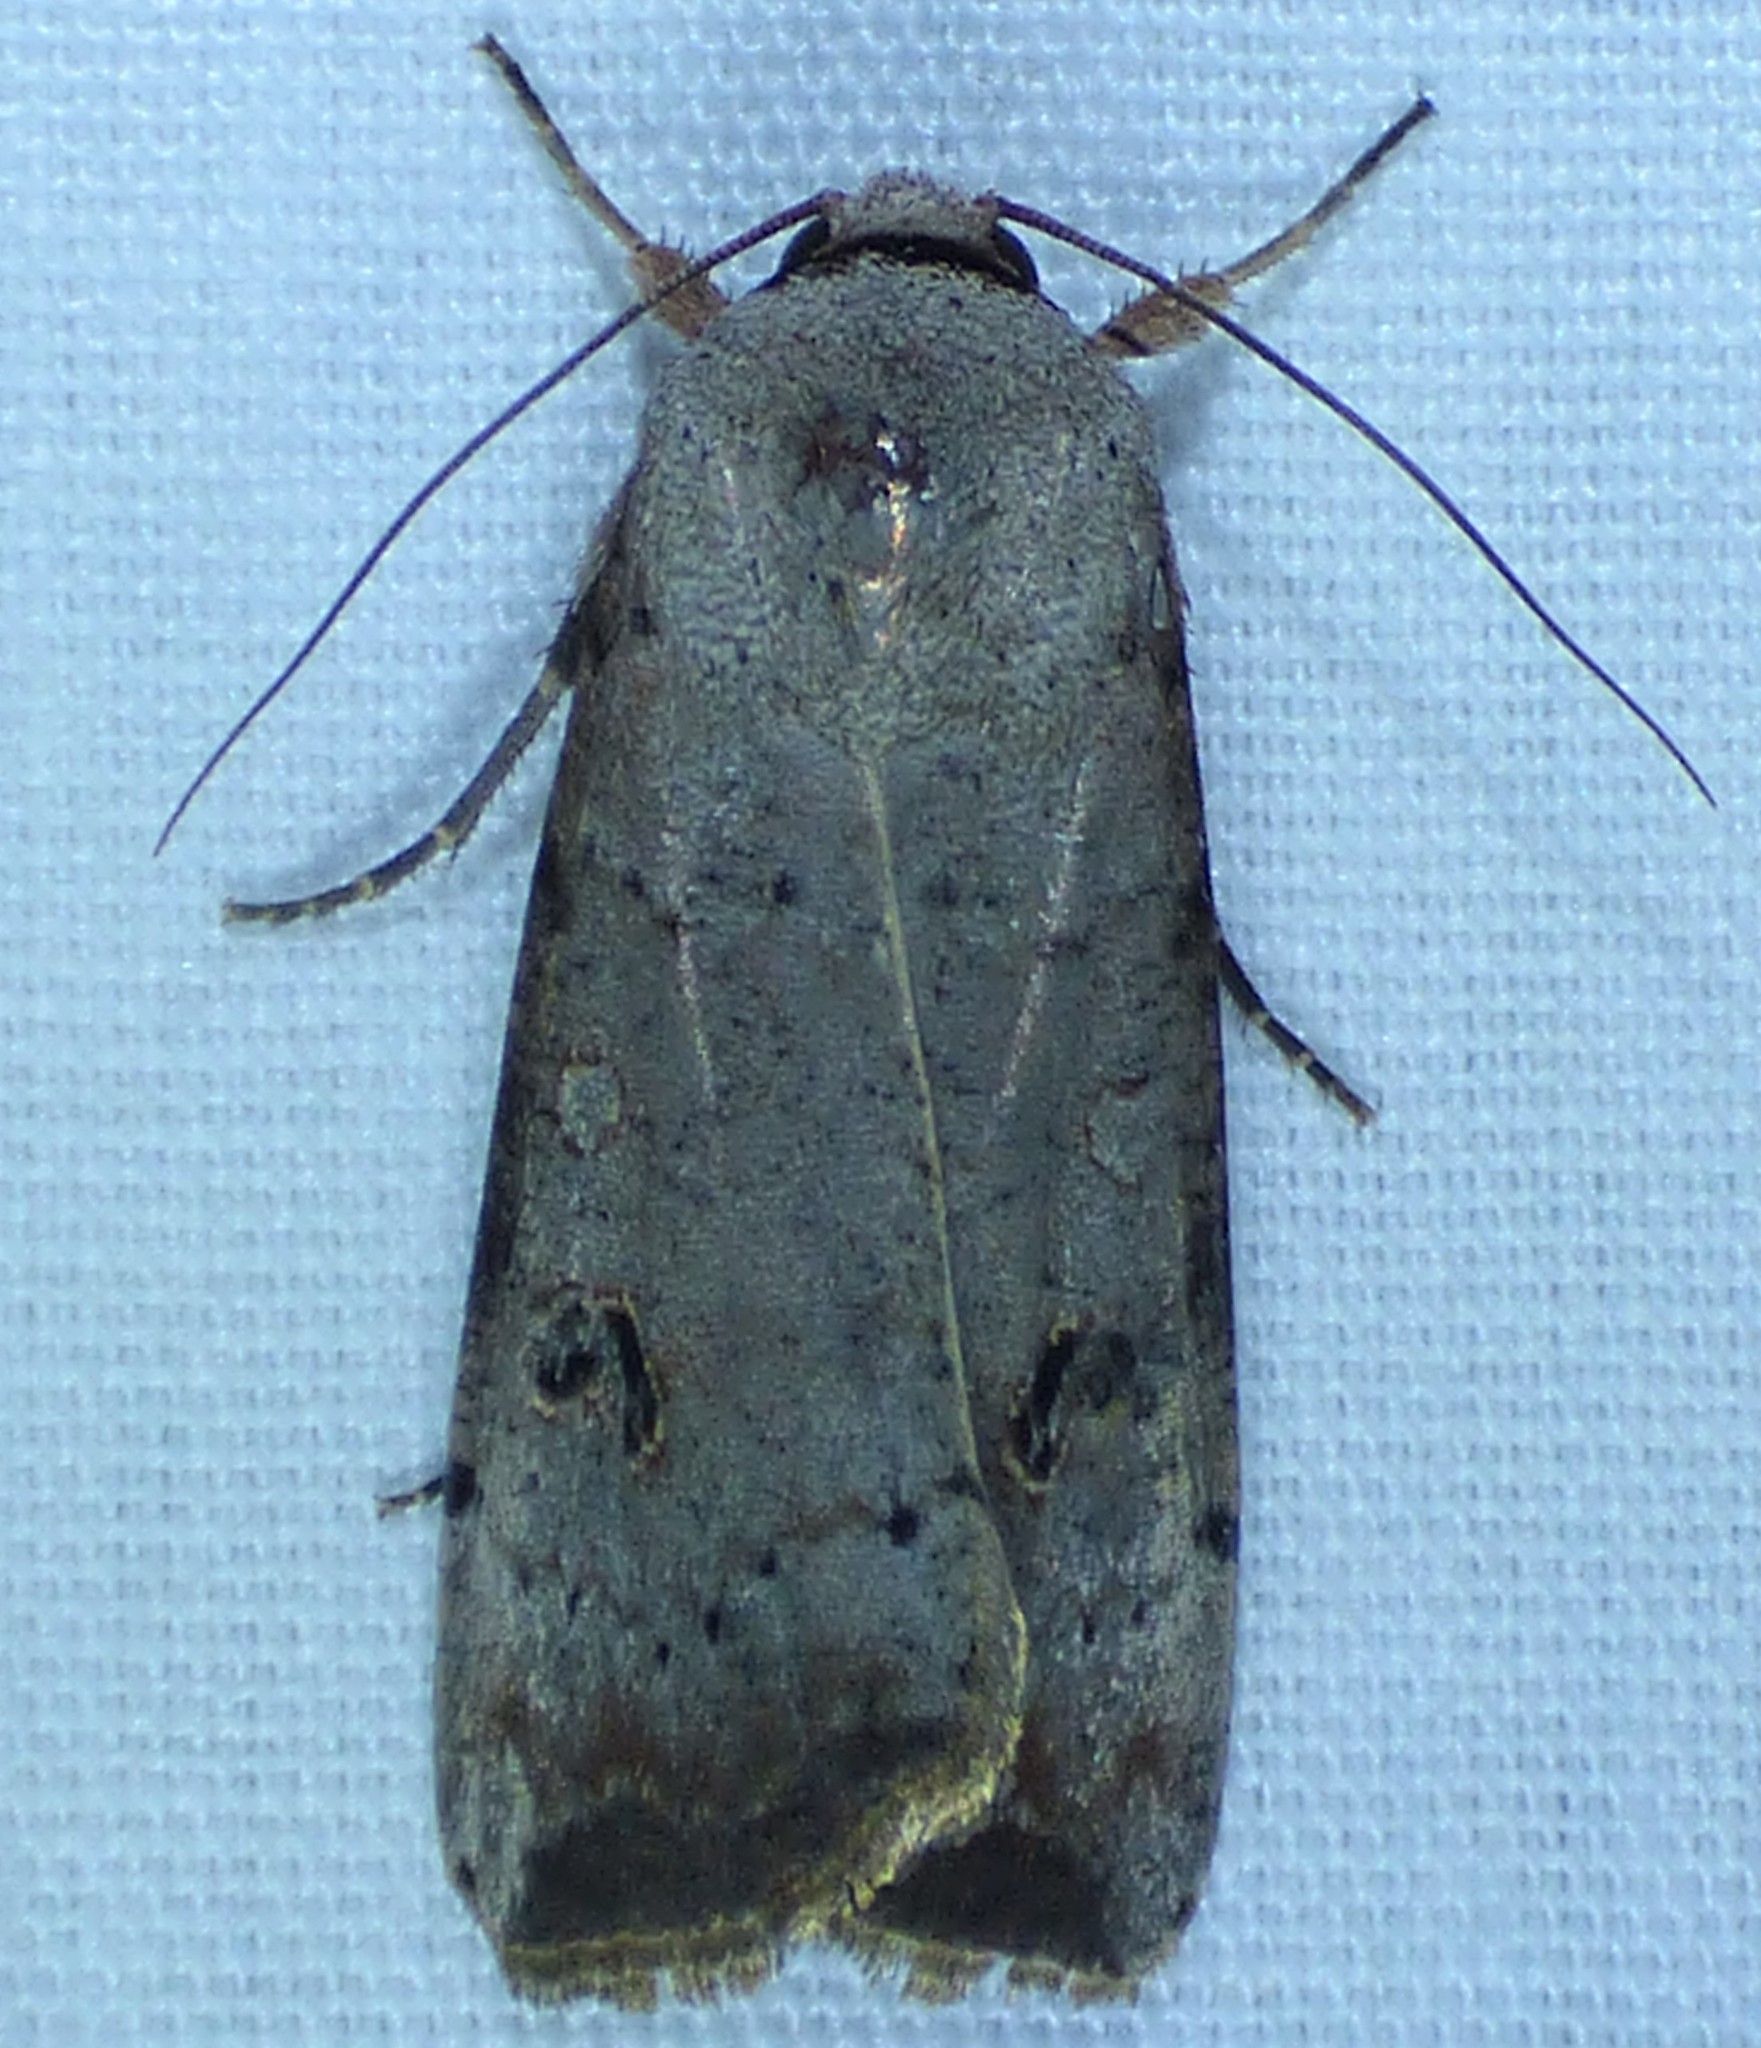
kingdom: Animalia
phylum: Arthropoda
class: Insecta
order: Lepidoptera
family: Noctuidae
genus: Anicla
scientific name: Anicla infecta
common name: Green cutworm
